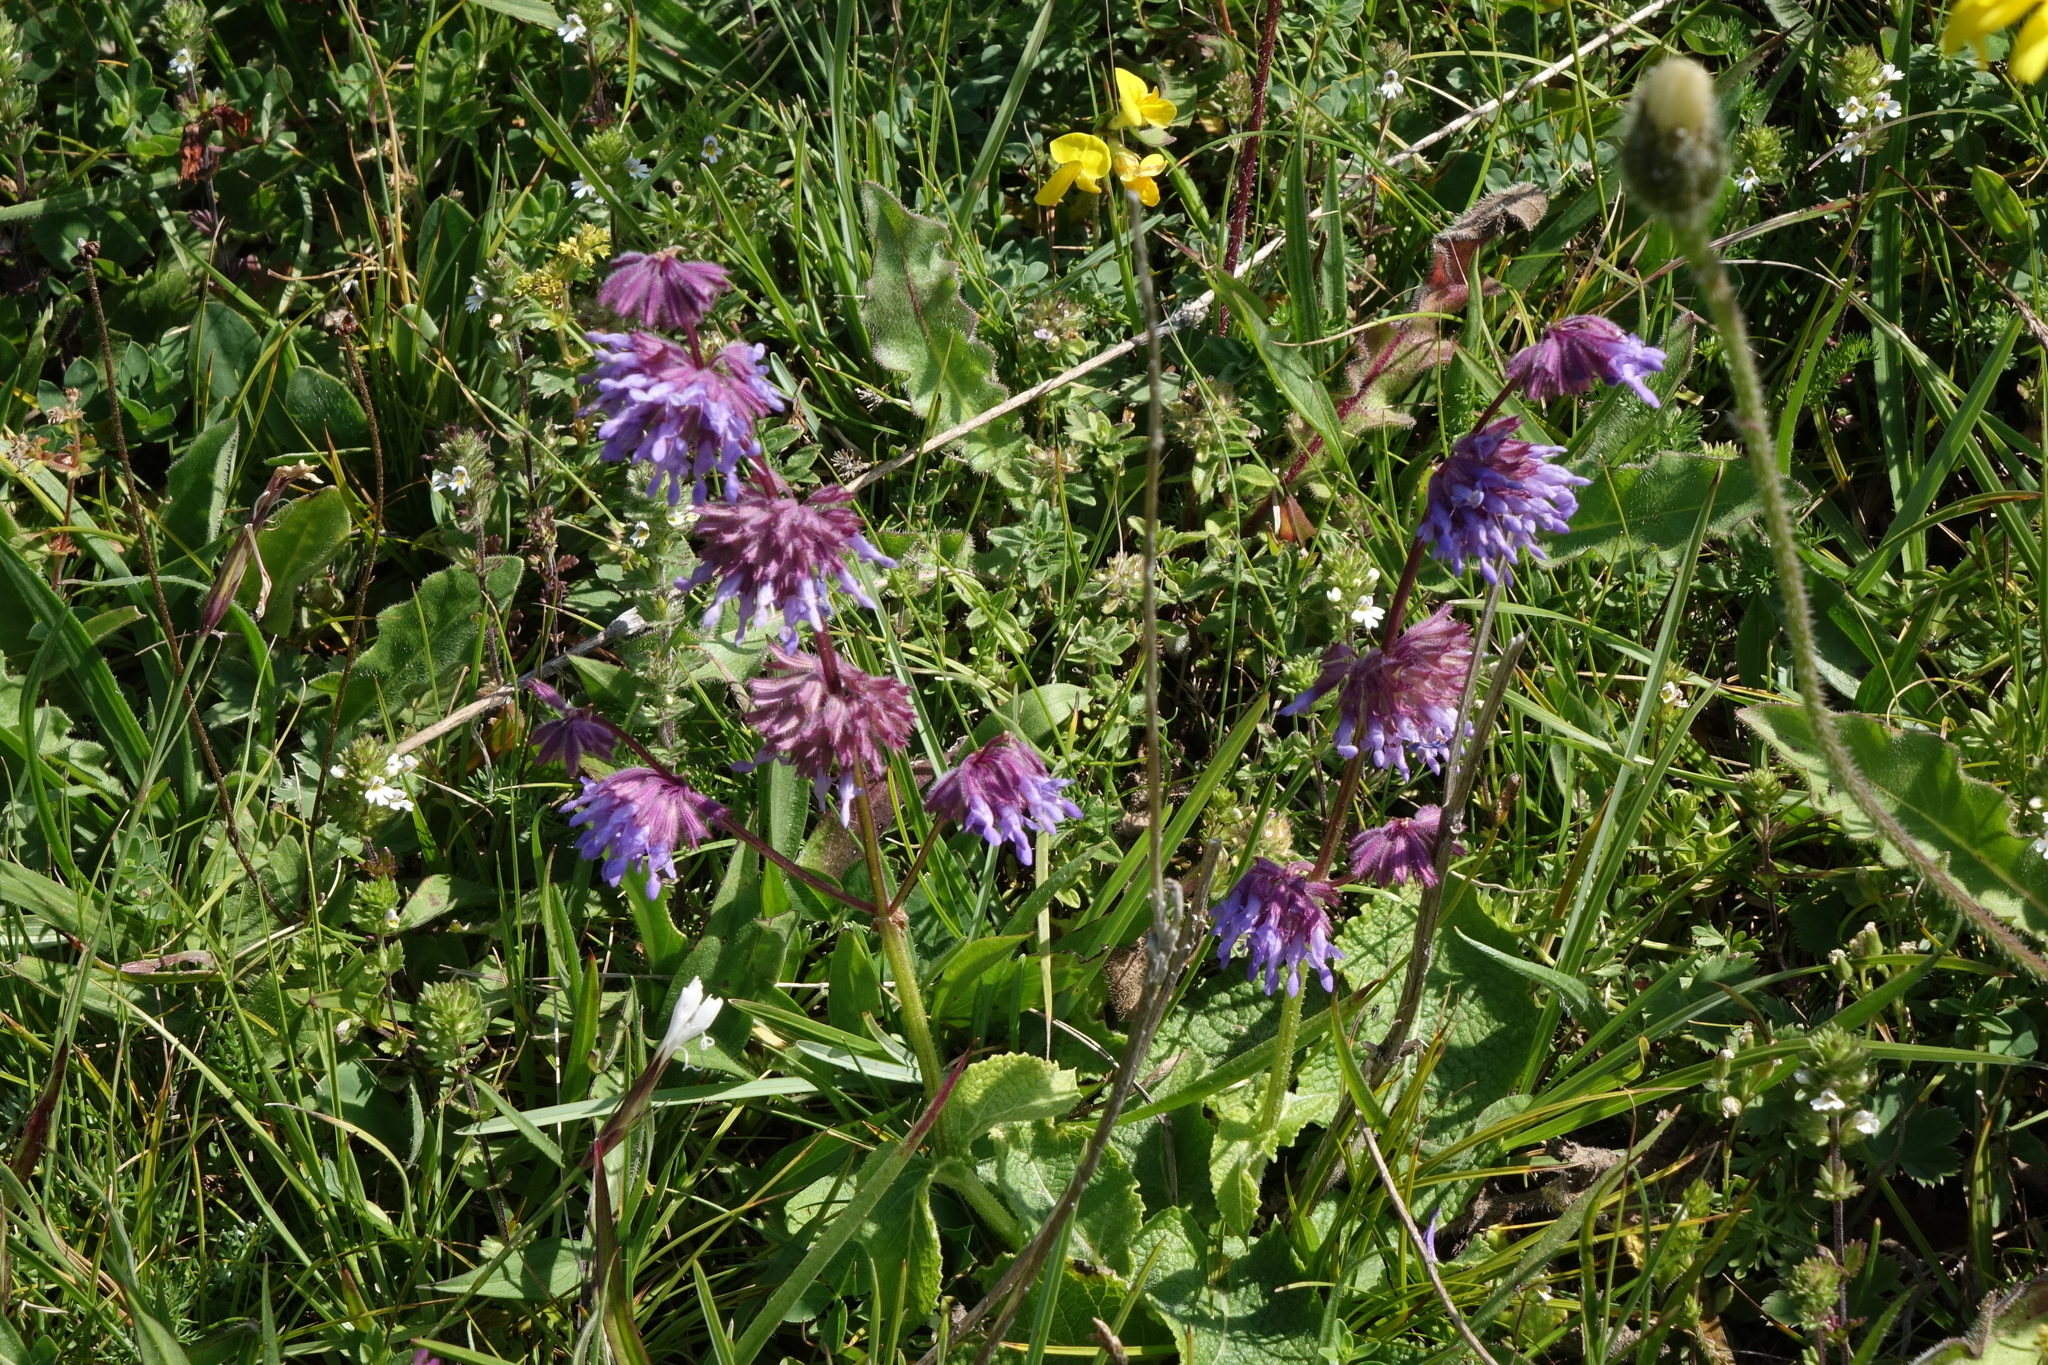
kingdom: Plantae
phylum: Tracheophyta
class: Magnoliopsida
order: Lamiales
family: Lamiaceae
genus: Salvia
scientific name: Salvia verticillata
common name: Whorled clary
